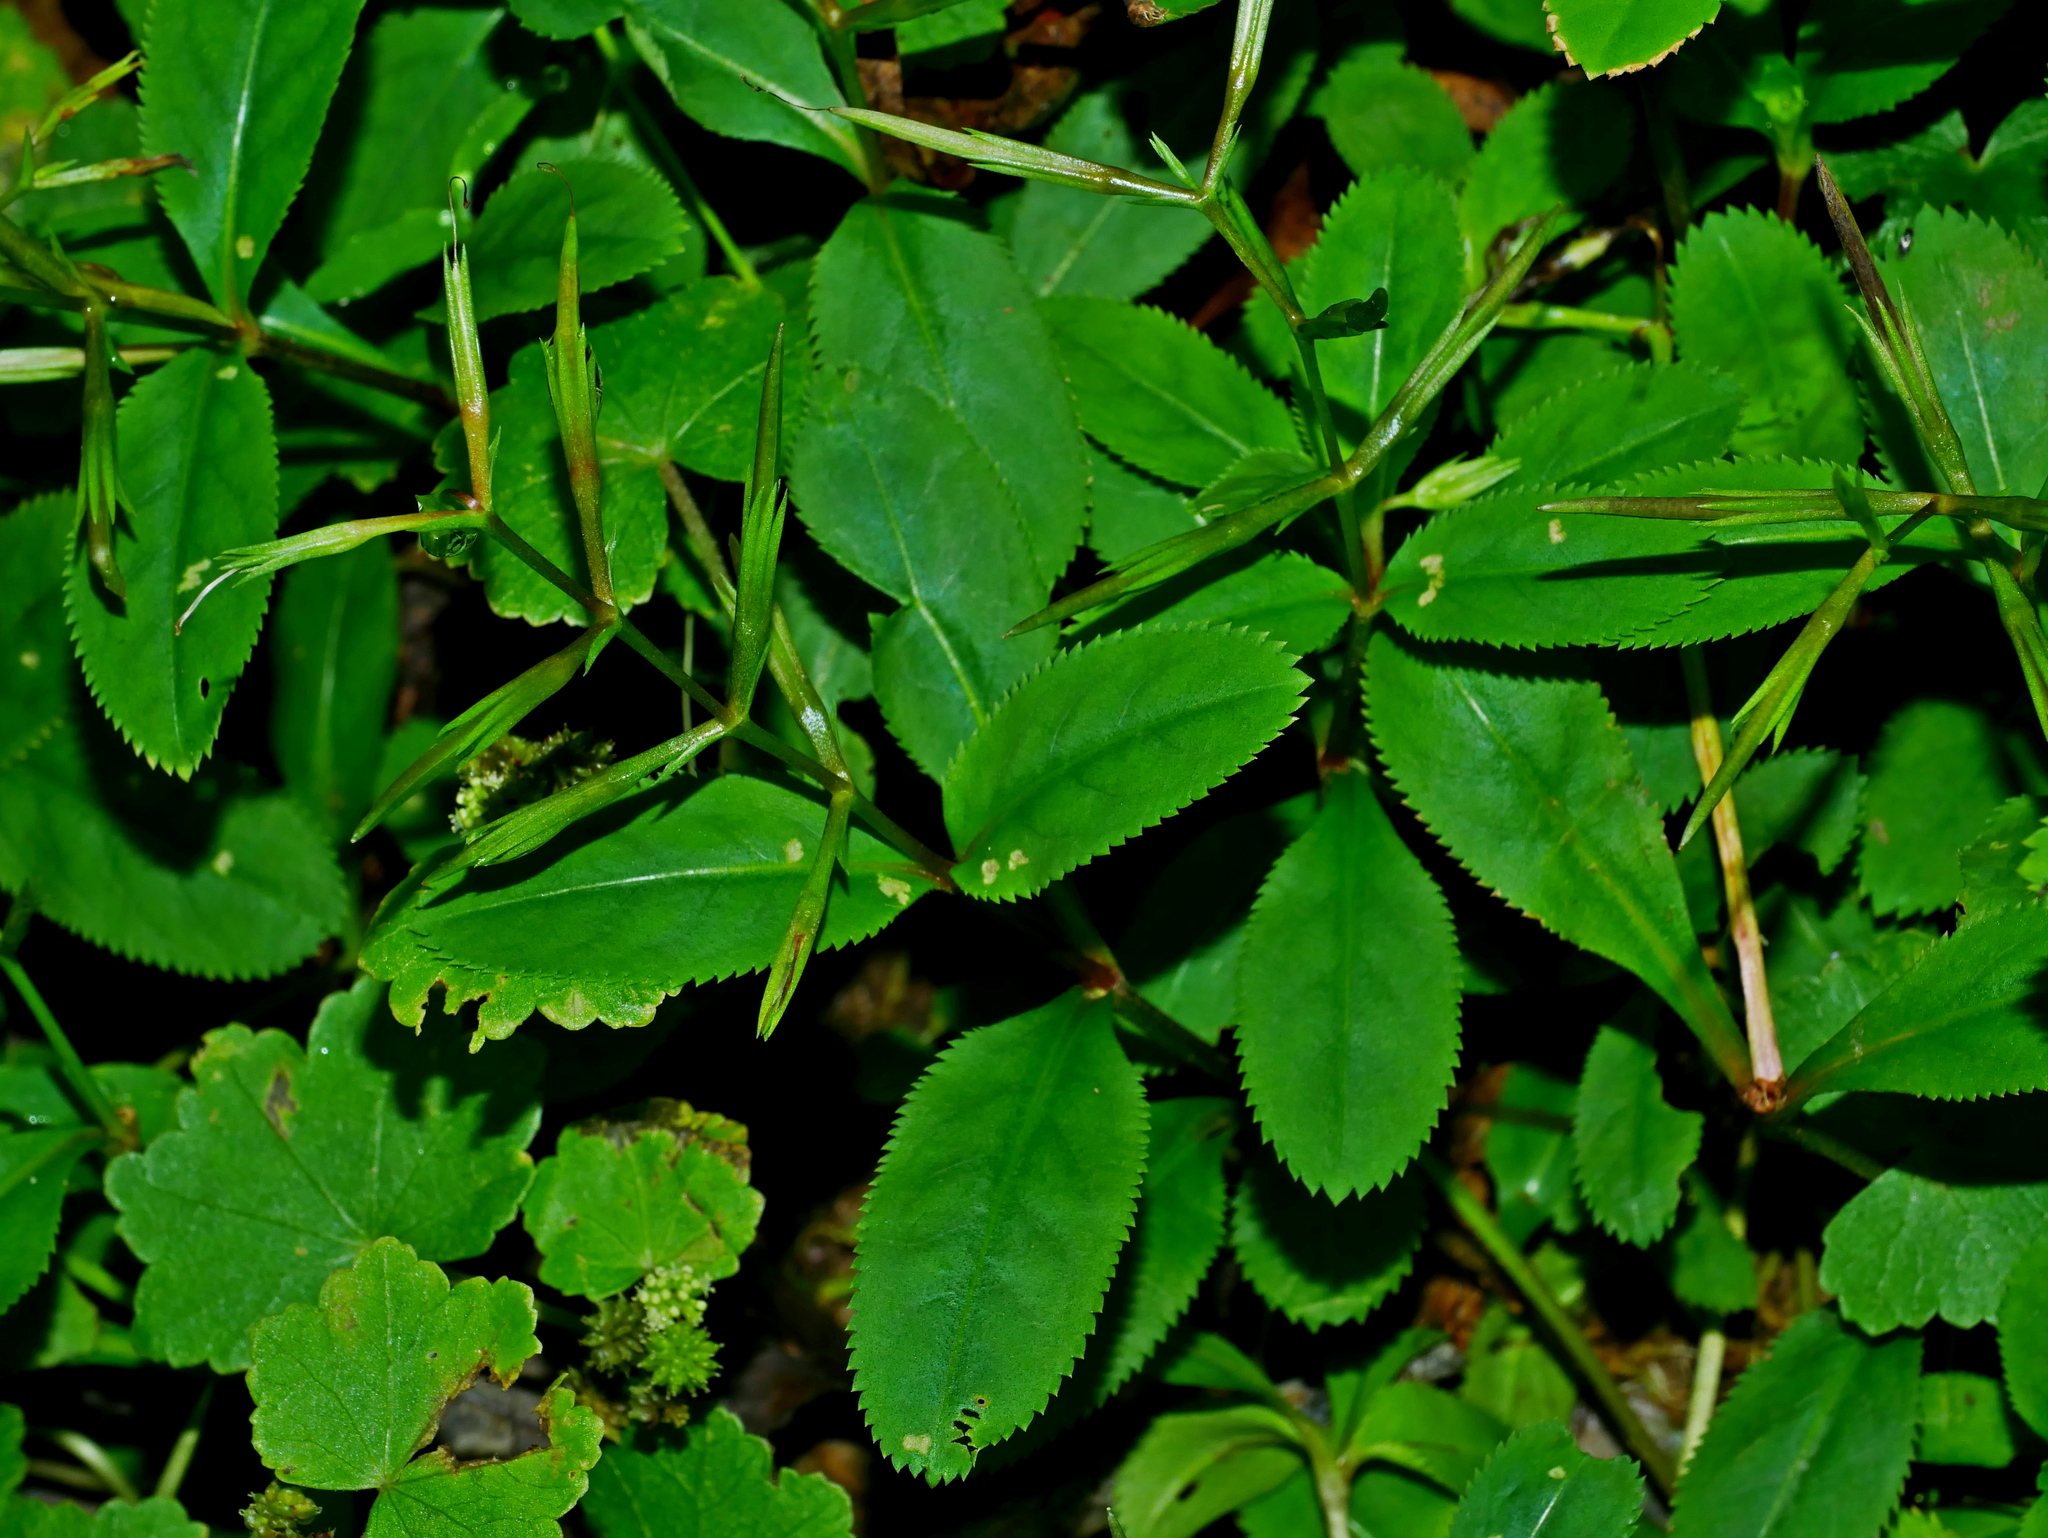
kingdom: Plantae
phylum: Tracheophyta
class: Magnoliopsida
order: Lamiales
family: Linderniaceae
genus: Bonnaya
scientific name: Bonnaya ruelloides
